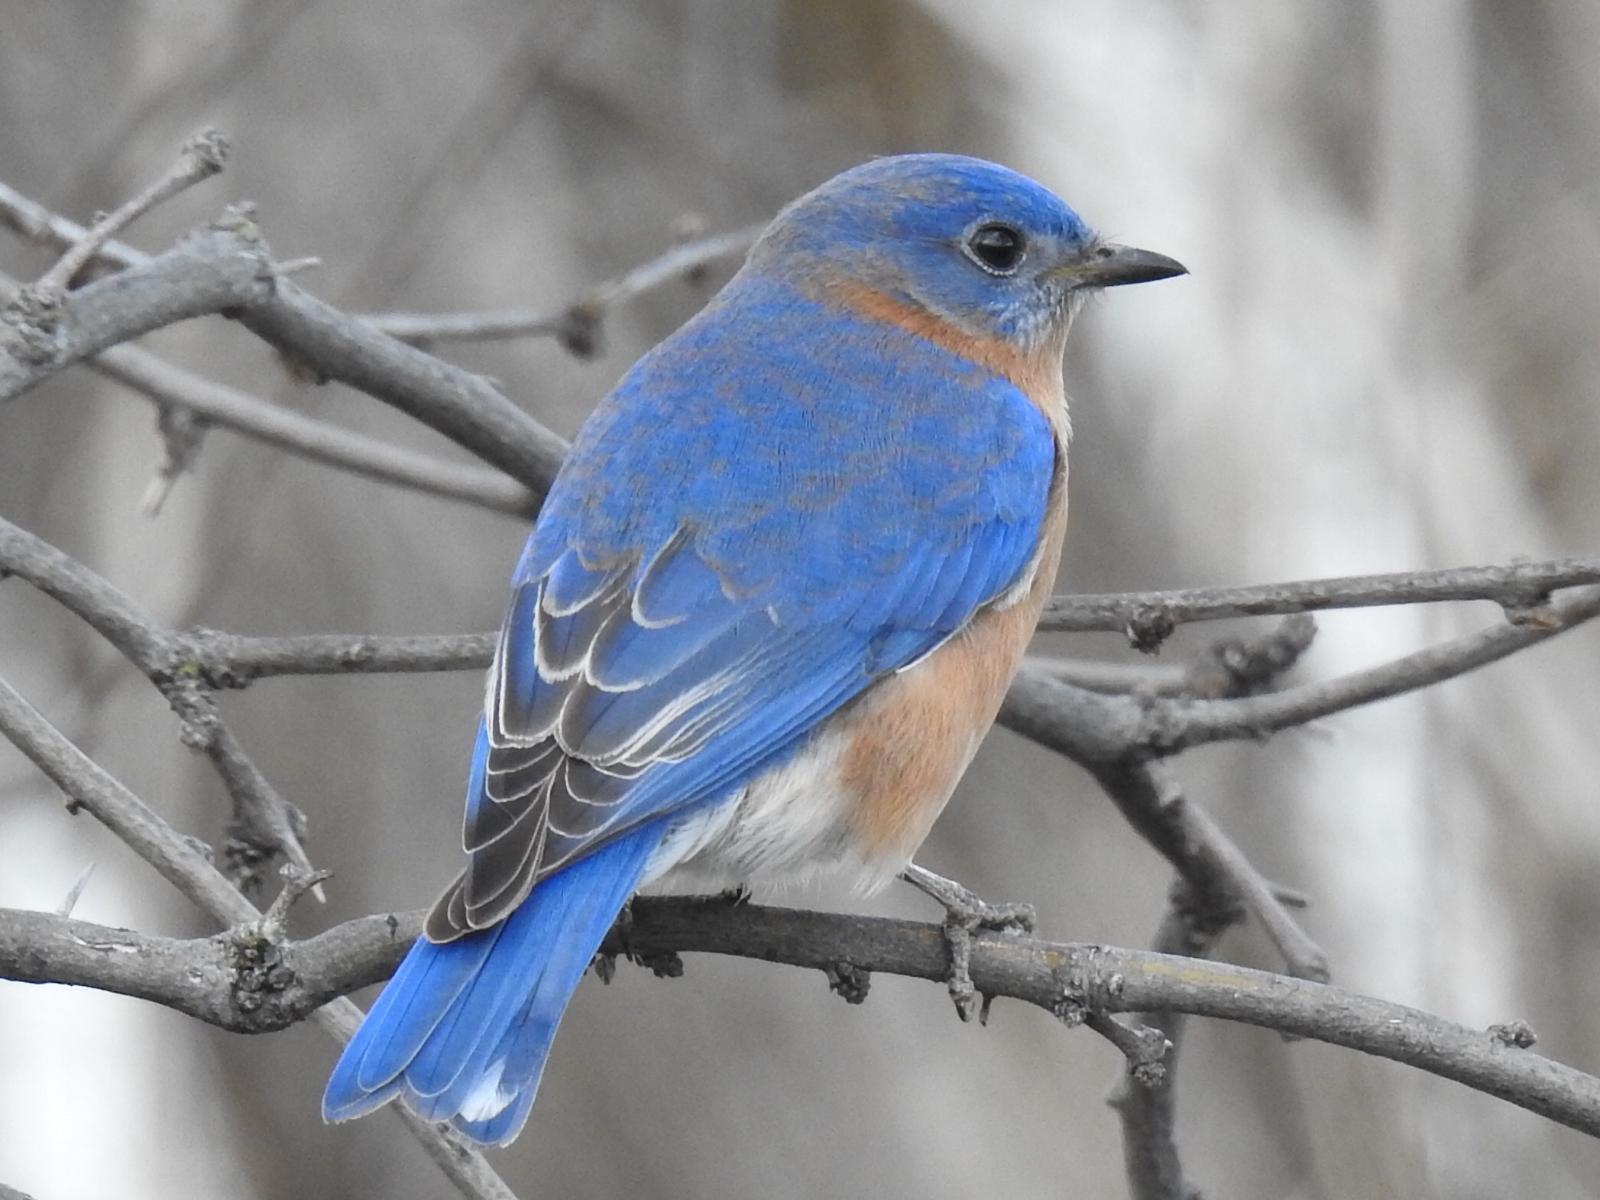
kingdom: Animalia
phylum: Chordata
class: Aves
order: Passeriformes
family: Turdidae
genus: Sialia
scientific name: Sialia sialis
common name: Eastern bluebird
